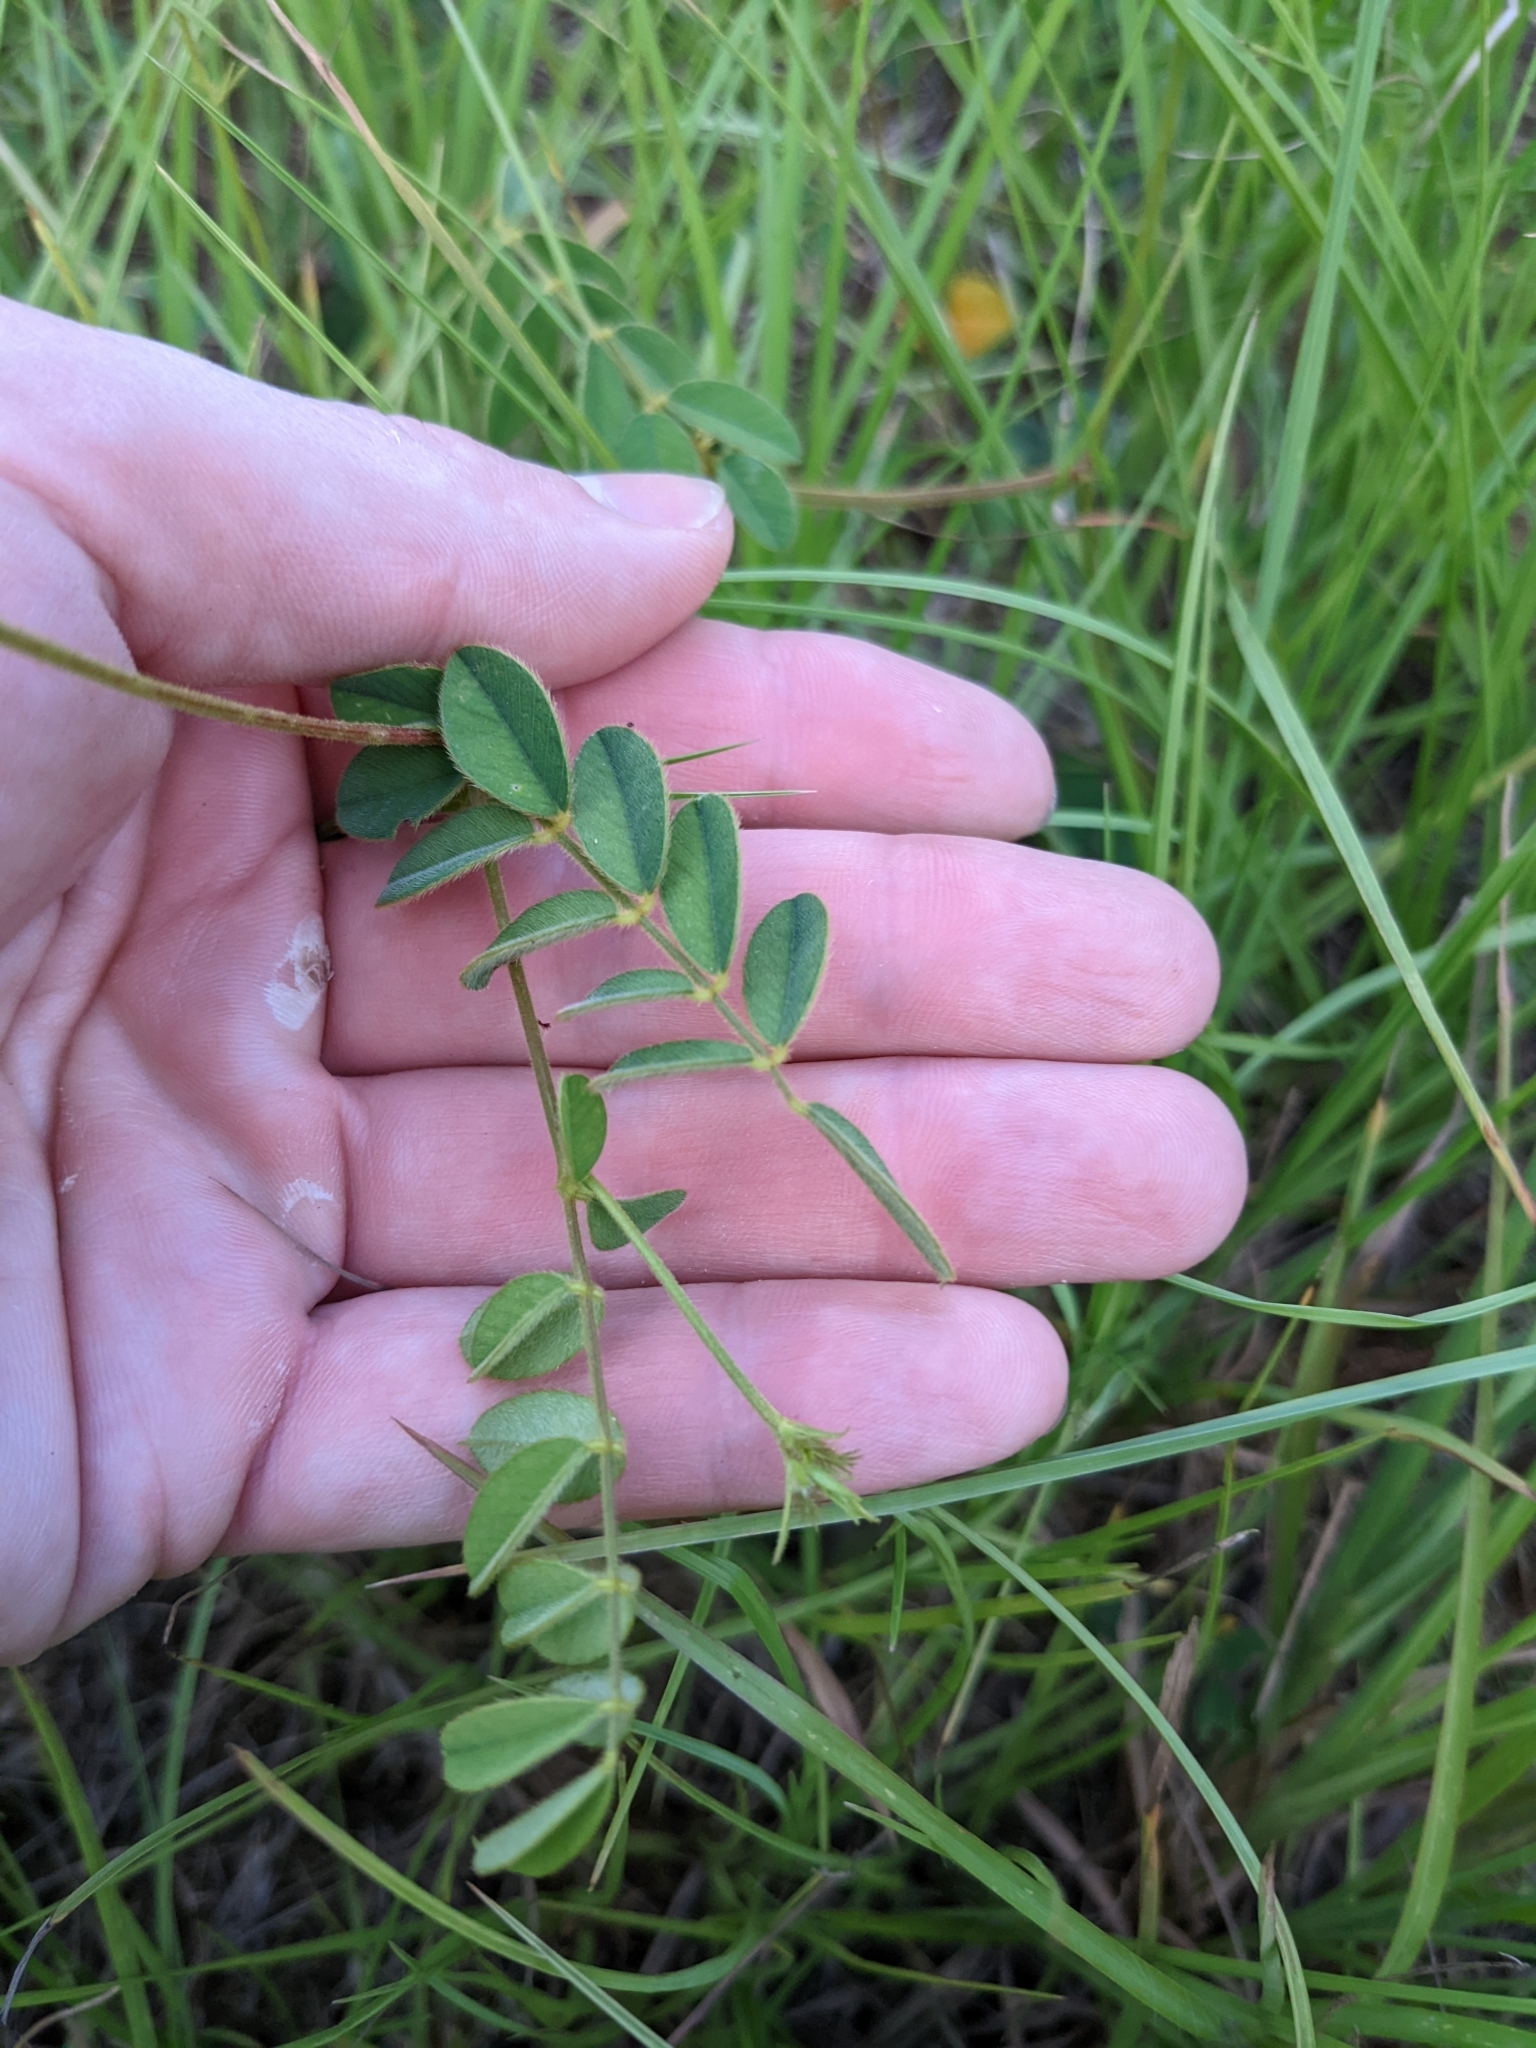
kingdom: Plantae
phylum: Tracheophyta
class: Magnoliopsida
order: Fabales
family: Fabaceae
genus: Tephrosia
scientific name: Tephrosia spicata
